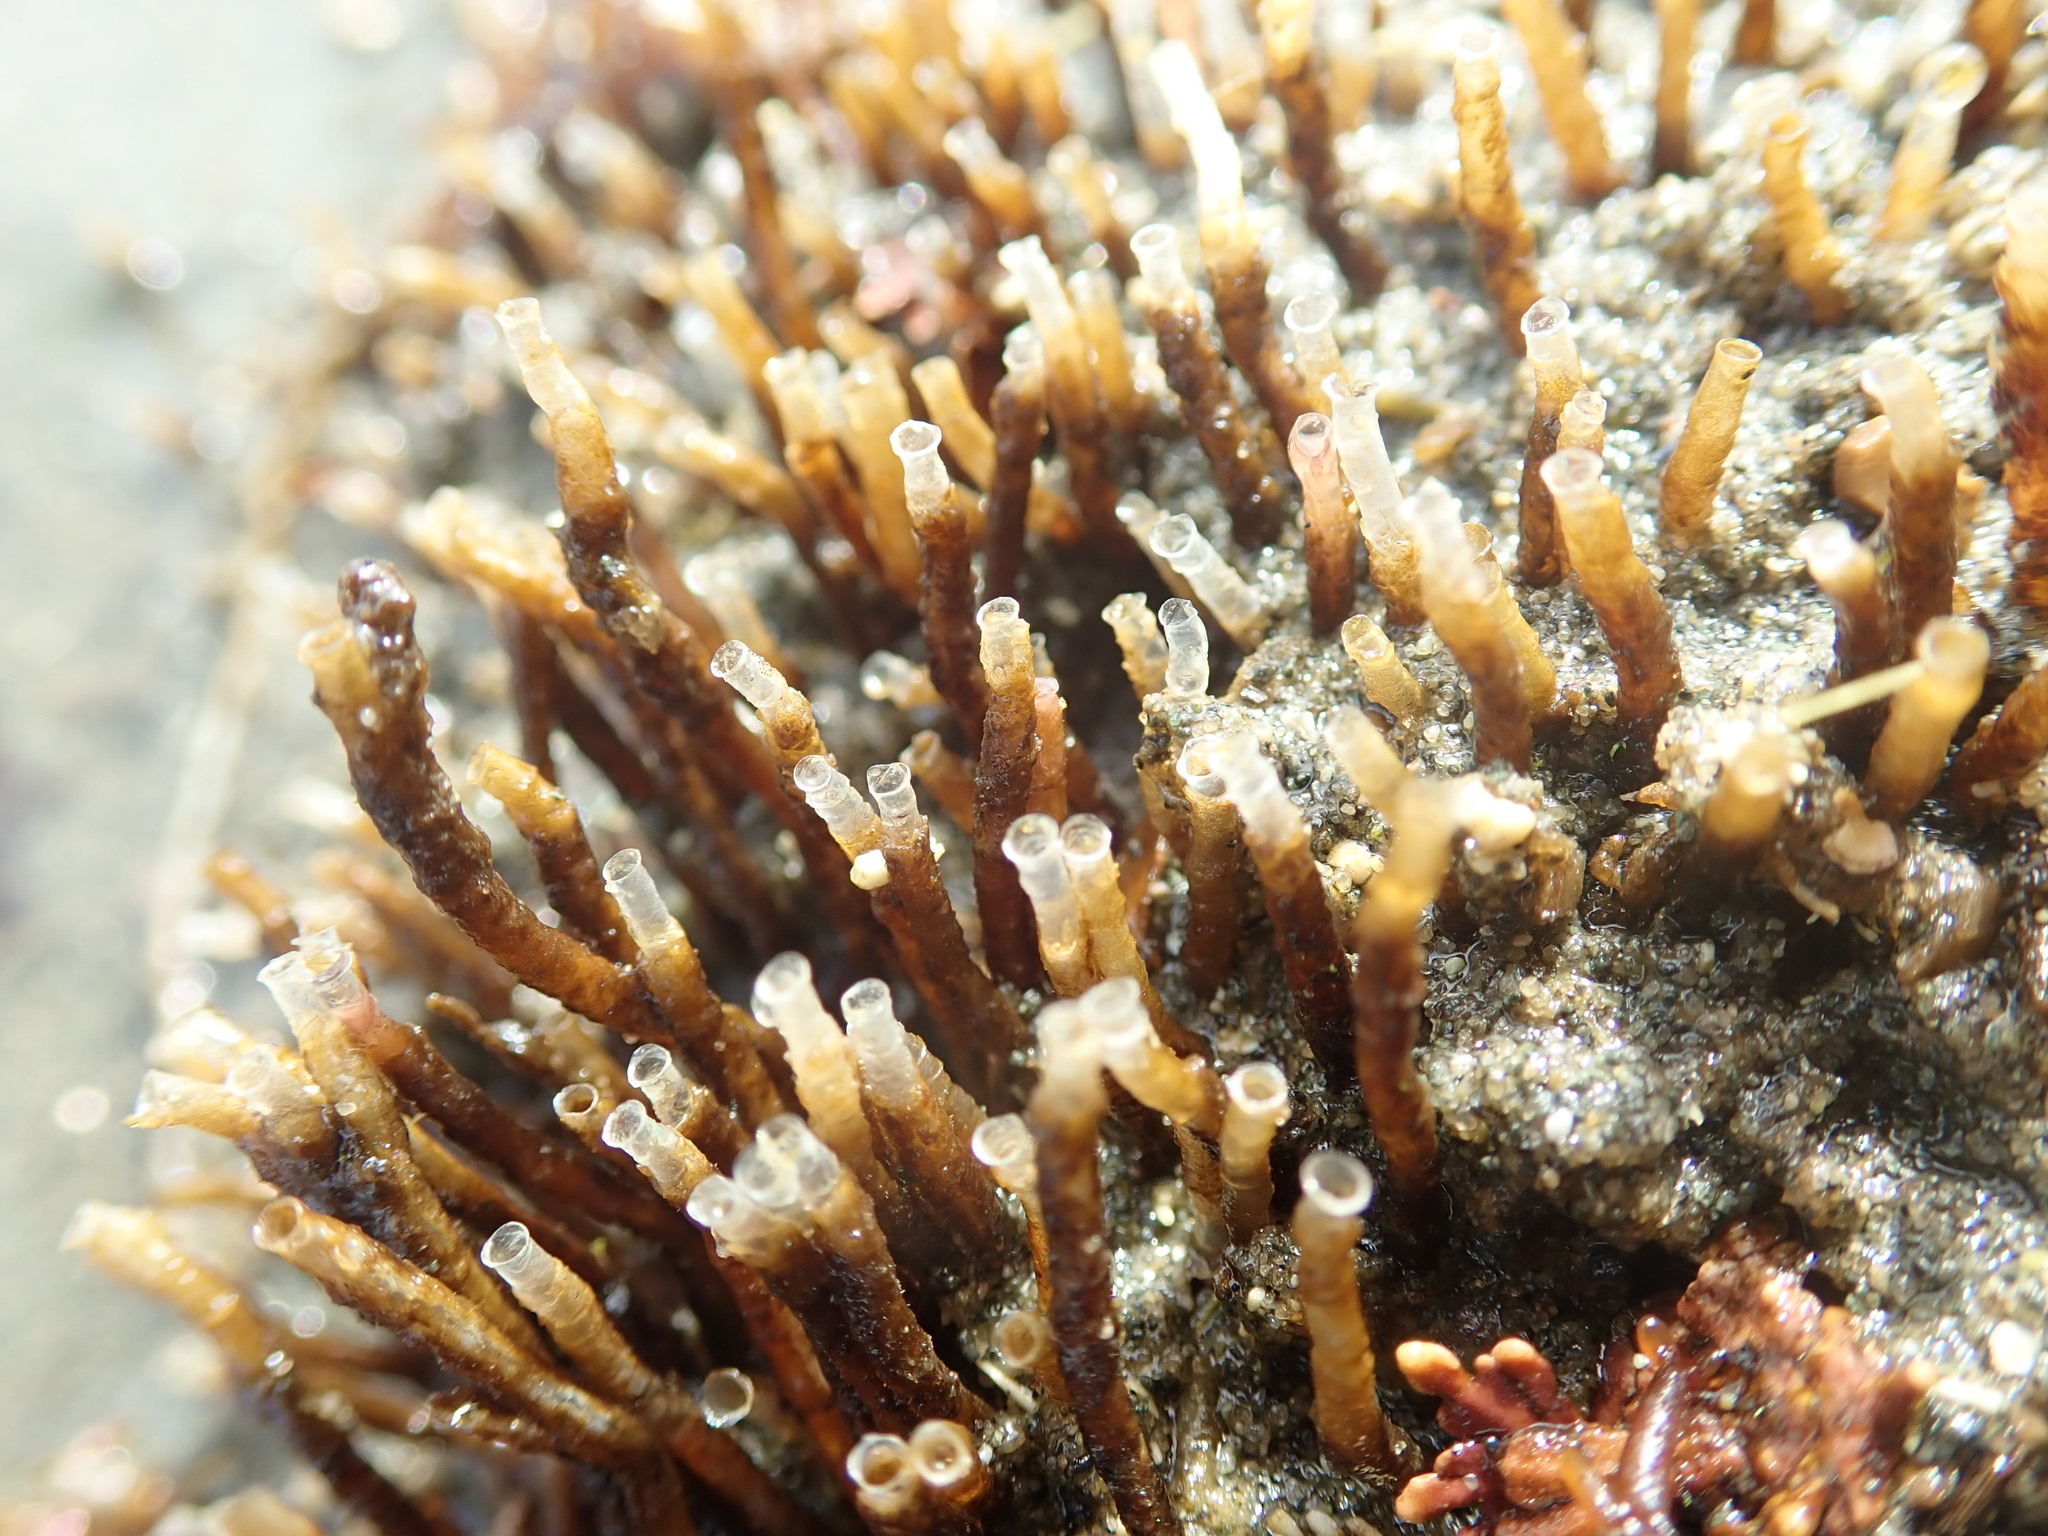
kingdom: Animalia
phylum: Annelida
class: Polychaeta
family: Chaetopteridae
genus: Spiochaetopterus
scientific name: Spiochaetopterus costarum
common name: Glassy tubeworm
